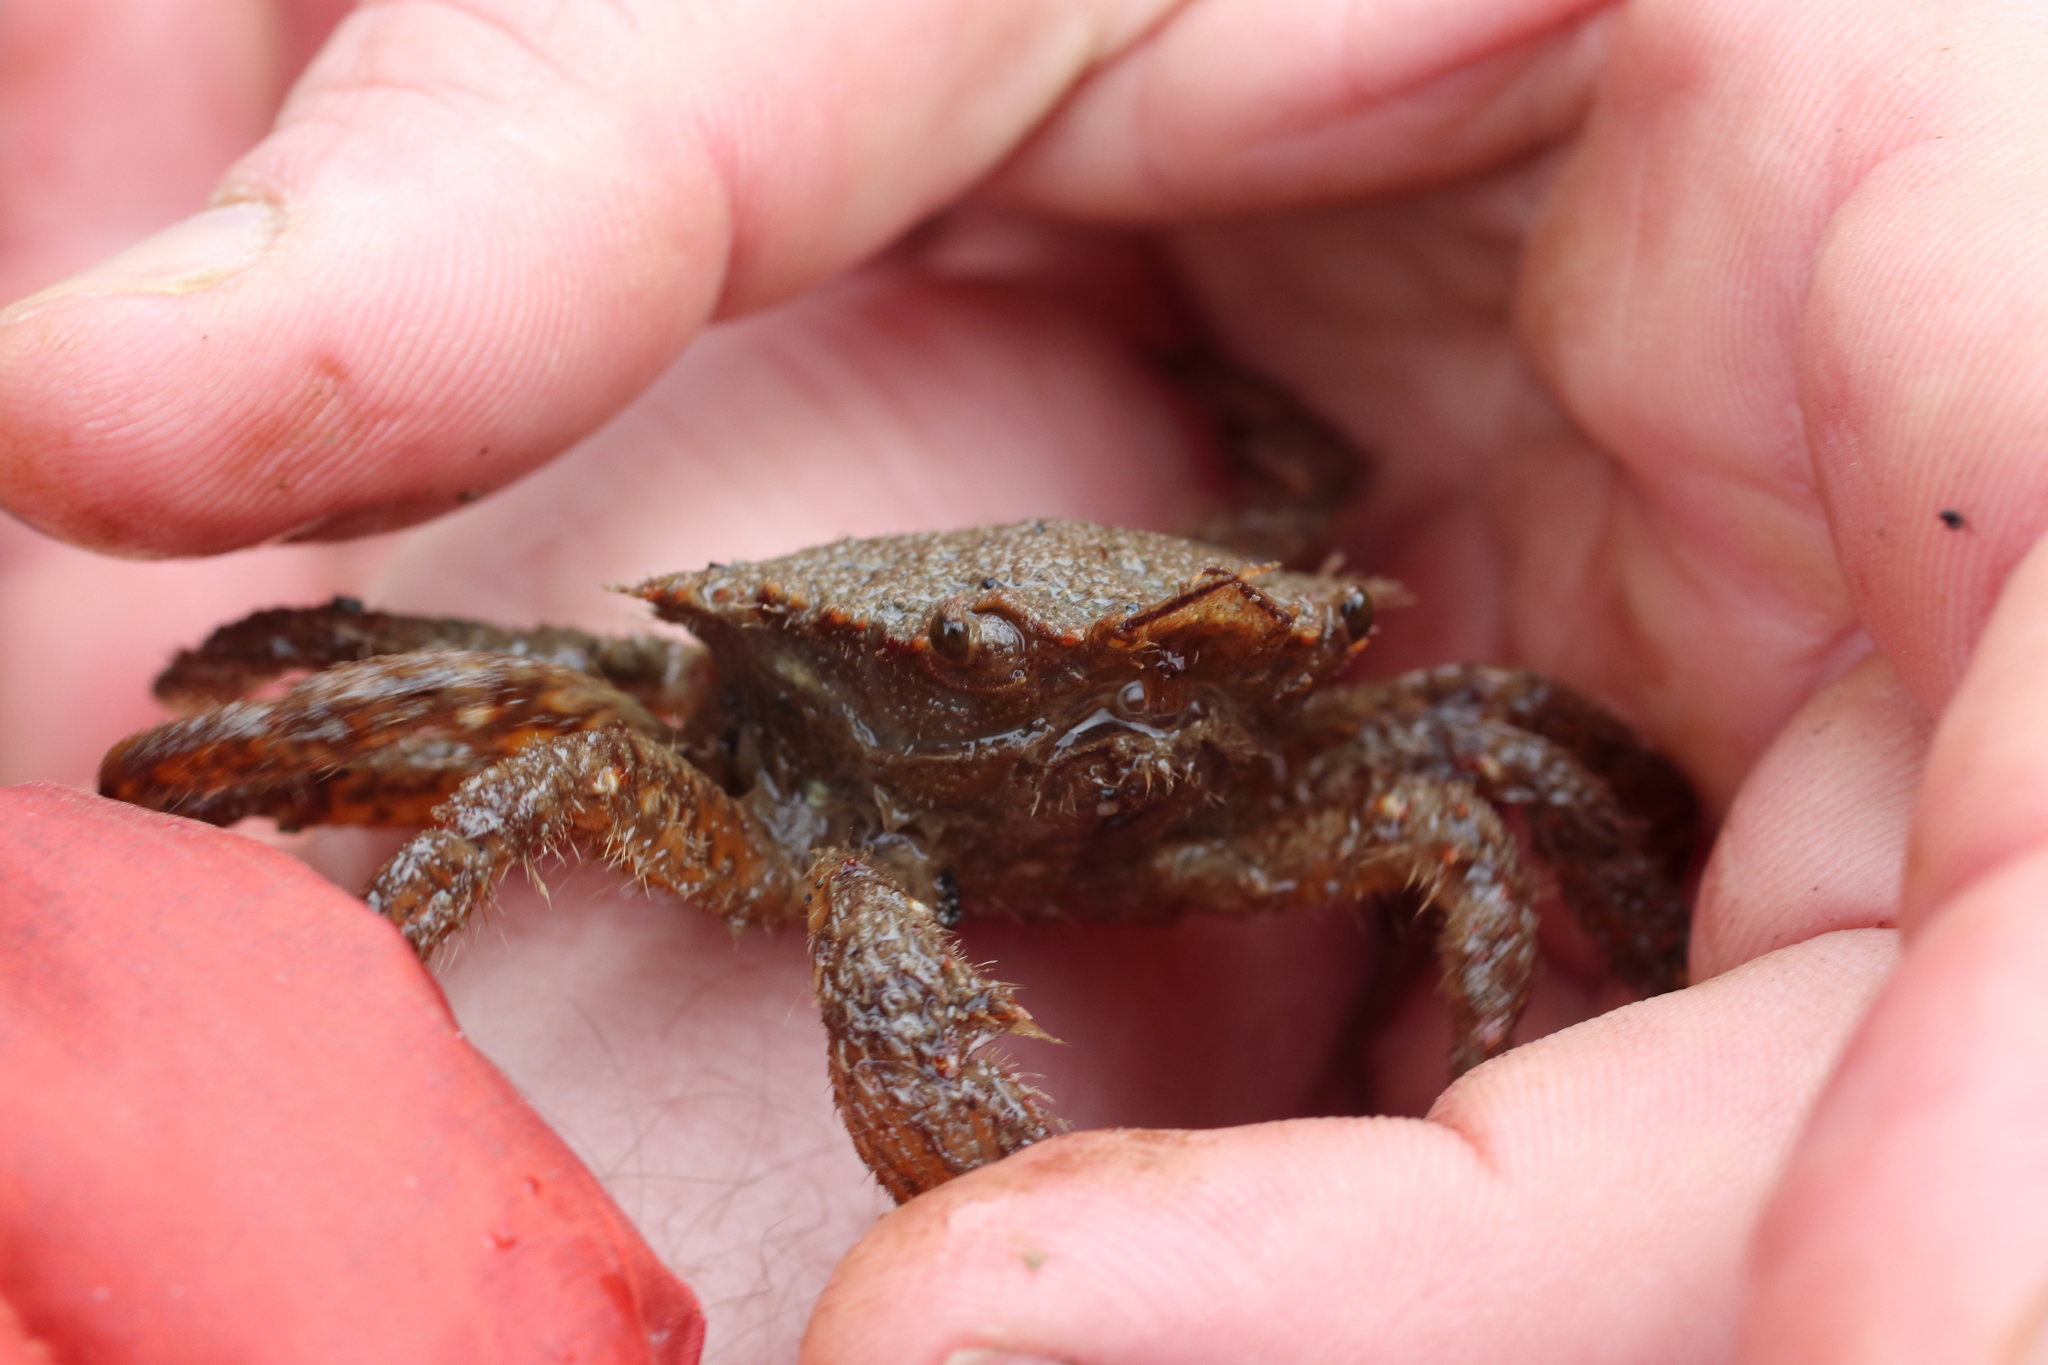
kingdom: Animalia
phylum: Arthropoda
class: Malacostraca
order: Decapoda
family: Cheiragonidae
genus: Telmessus
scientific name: Telmessus cheiragonus
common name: Helmet crab
